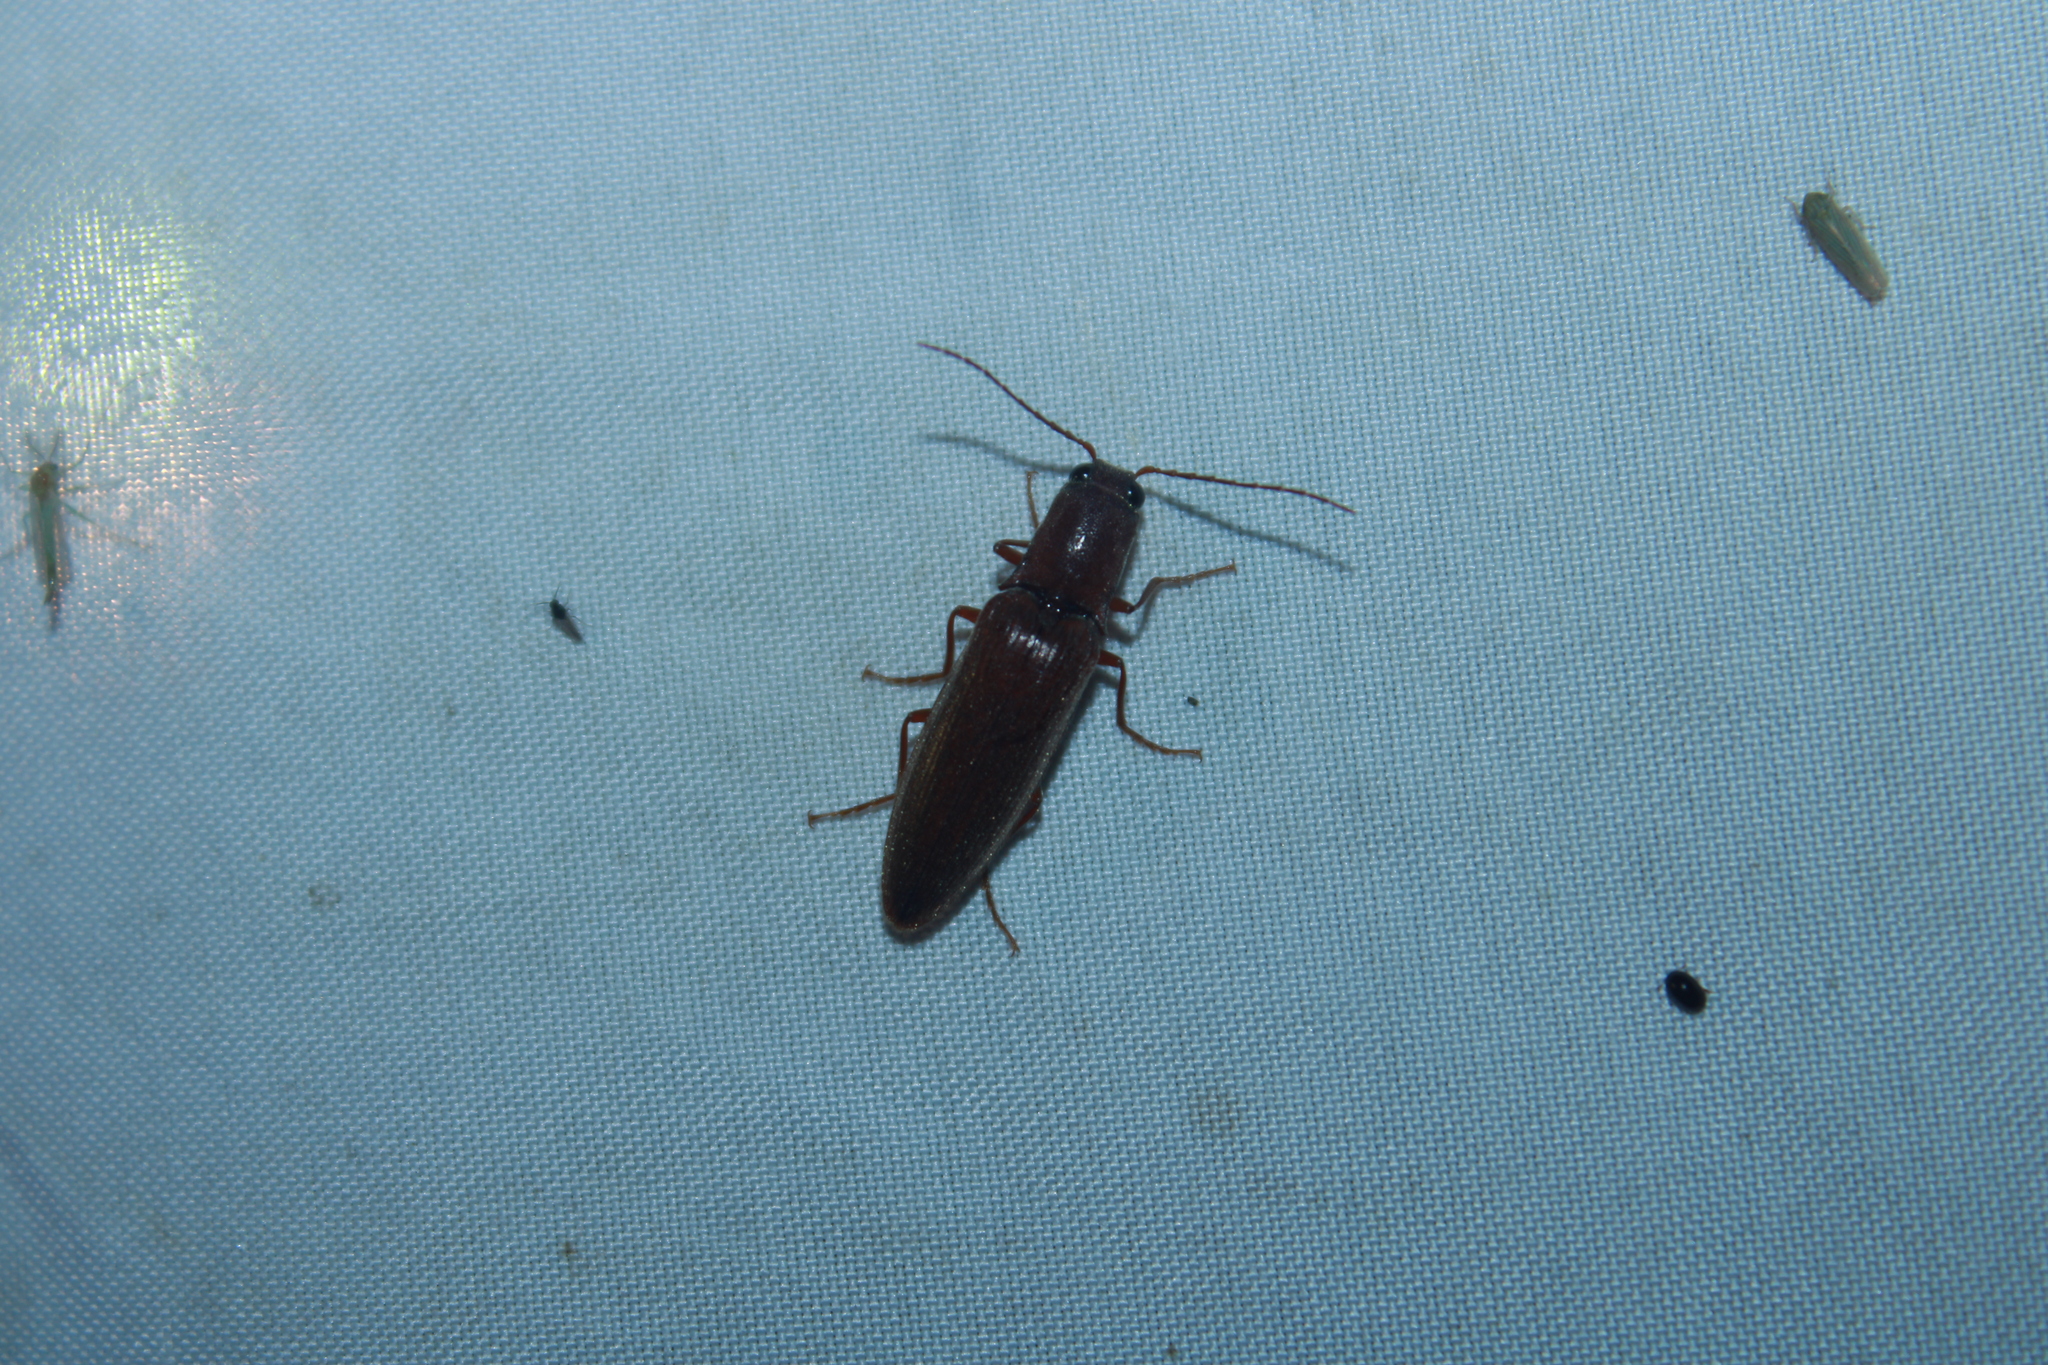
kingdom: Animalia
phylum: Arthropoda
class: Insecta
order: Coleoptera
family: Elateridae
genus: Proludius
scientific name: Proludius pyrros
